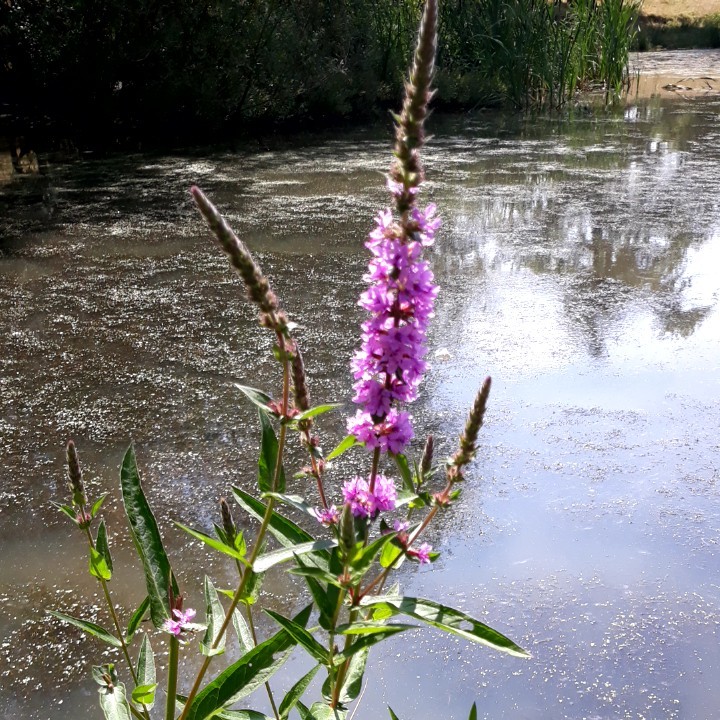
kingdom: Plantae
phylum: Tracheophyta
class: Magnoliopsida
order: Myrtales
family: Lythraceae
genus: Lythrum
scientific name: Lythrum salicaria
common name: Purple loosestrife
